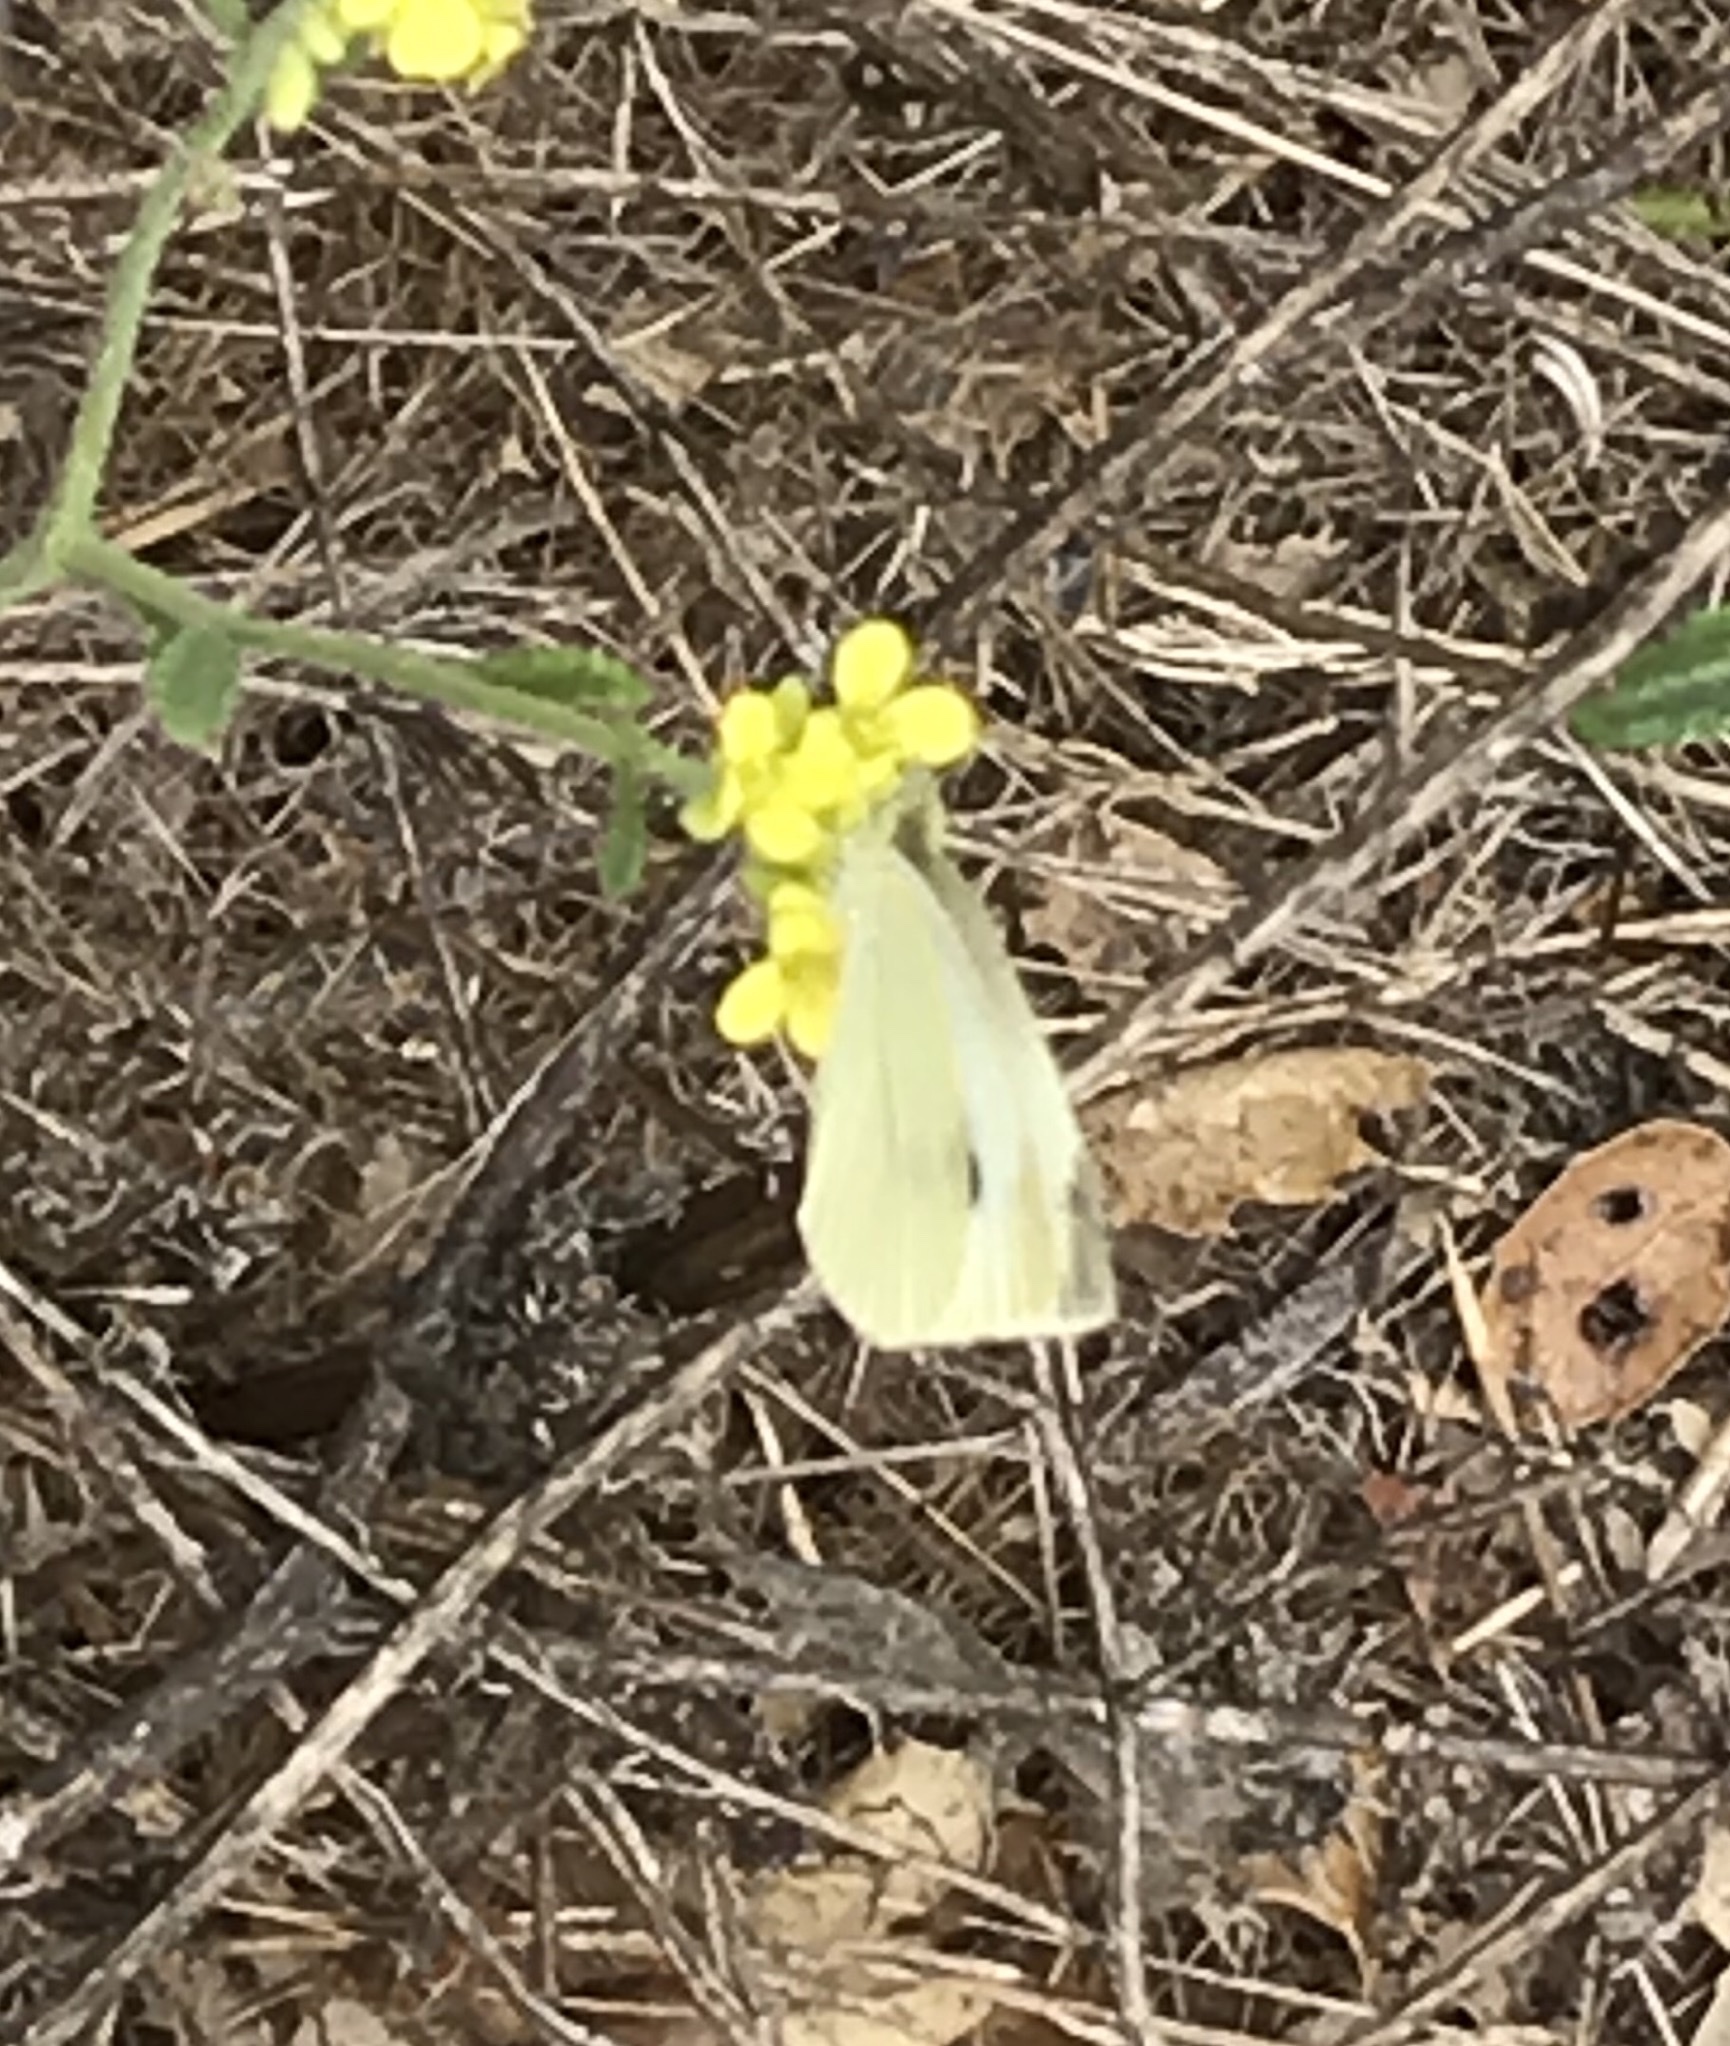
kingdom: Animalia
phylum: Arthropoda
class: Insecta
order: Lepidoptera
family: Pieridae
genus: Pieris
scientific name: Pieris rapae
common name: Small white
